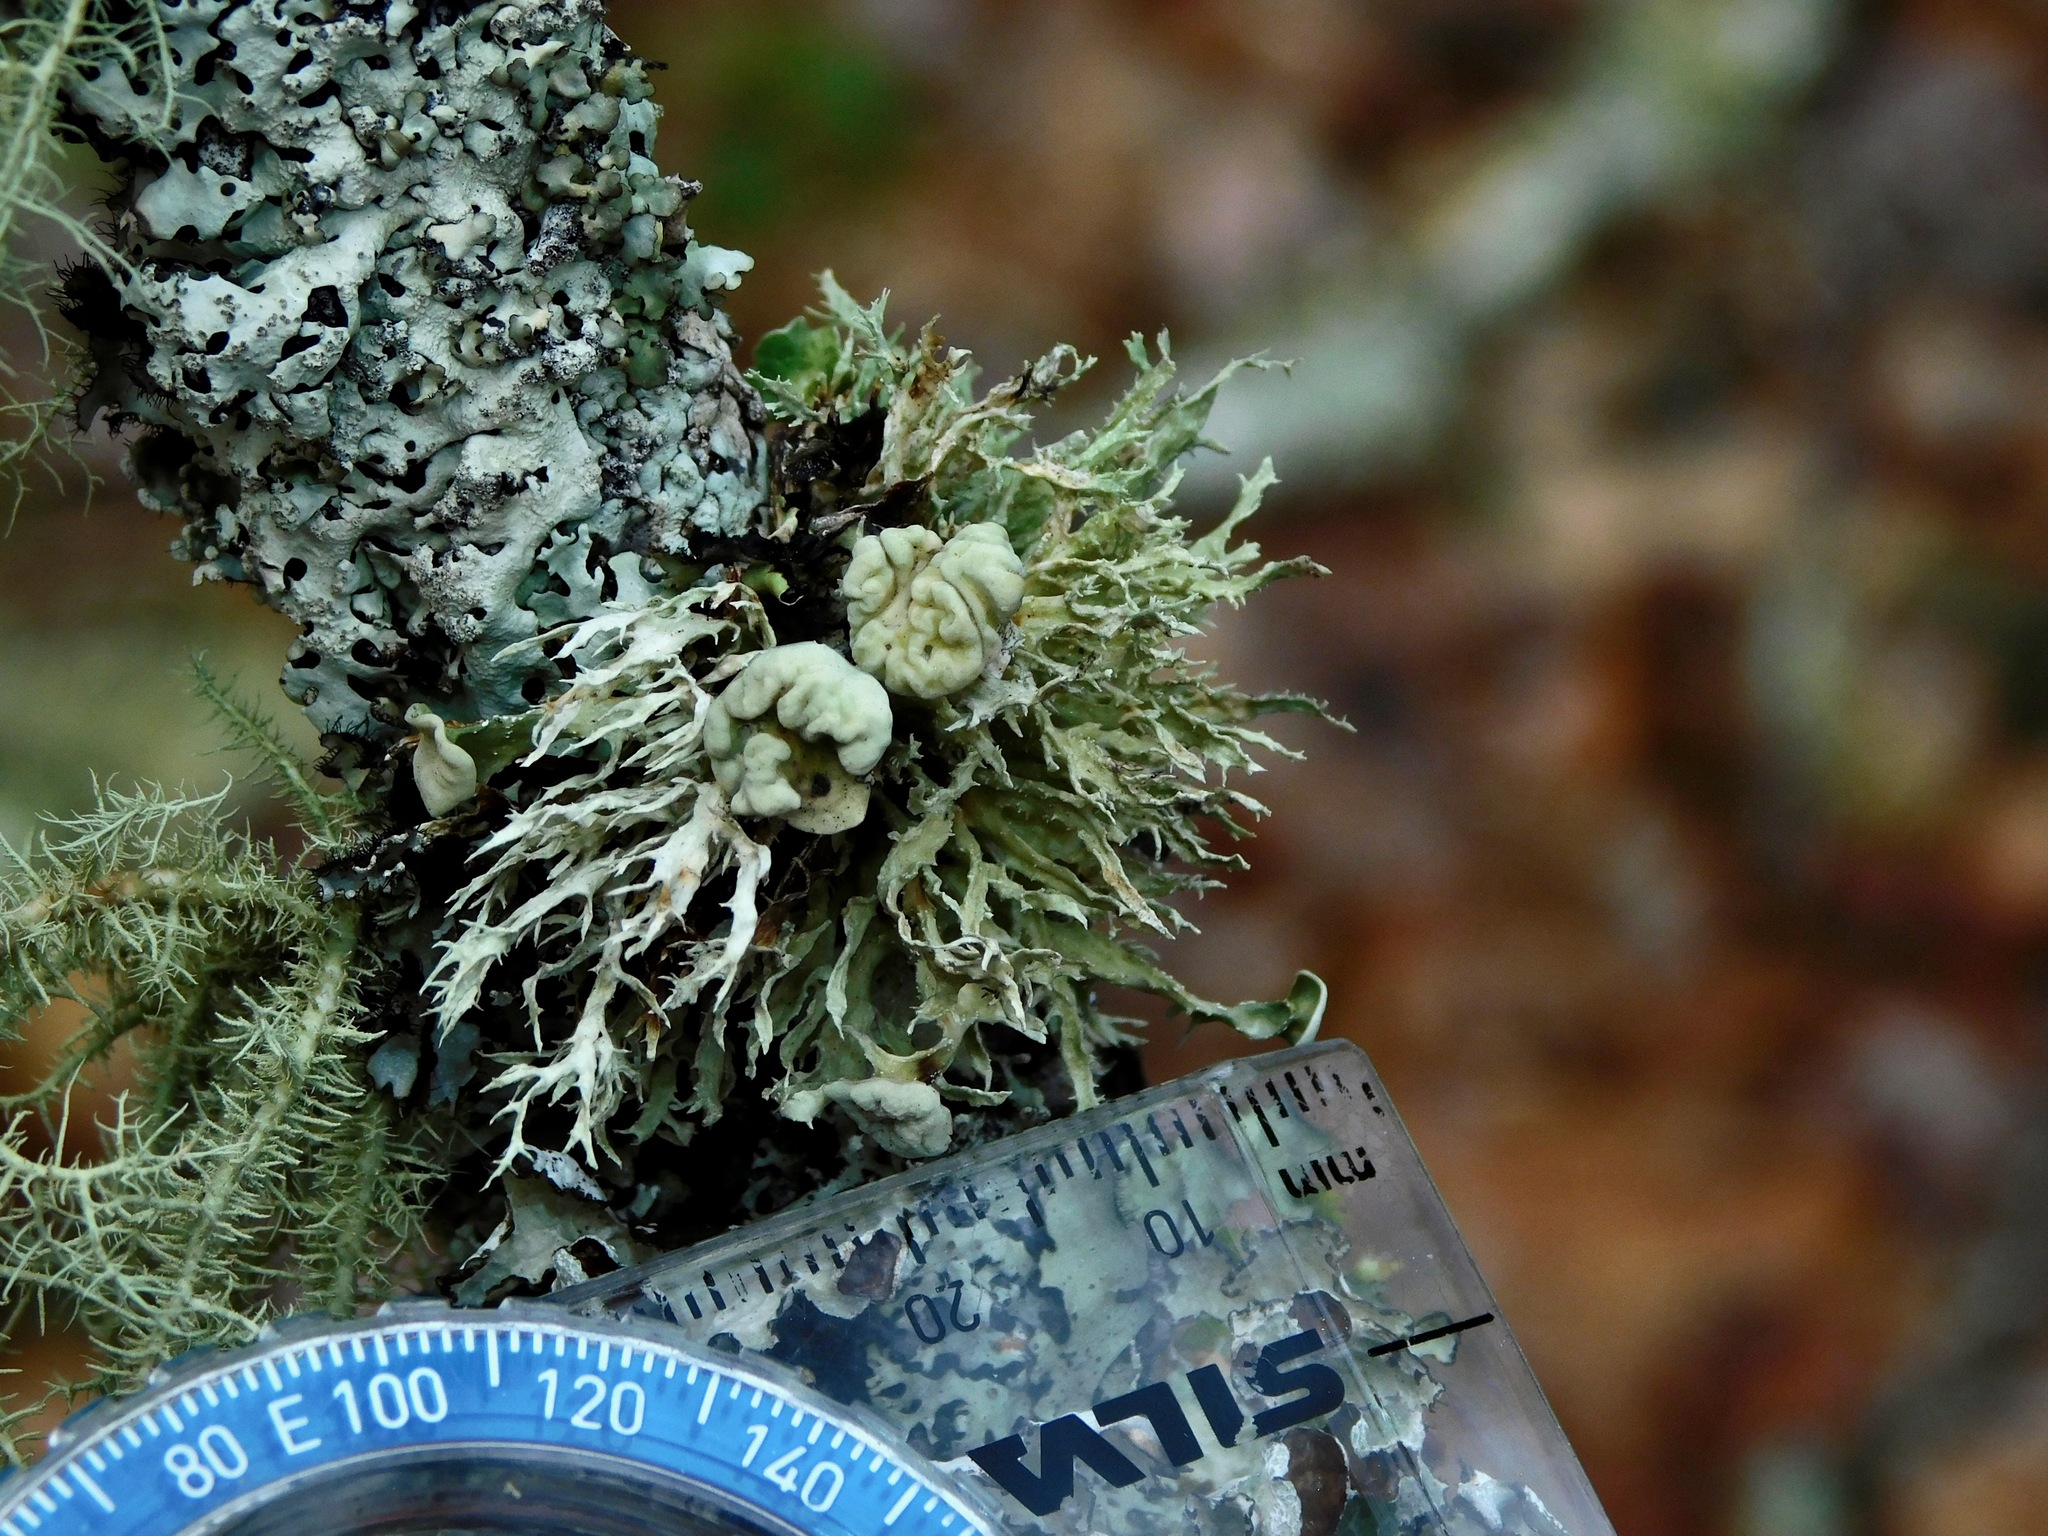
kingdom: Fungi
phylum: Basidiomycota
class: Tremellomycetes
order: Tremellales
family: Tremellaceae
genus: Tremella
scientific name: Tremella ramalinae
